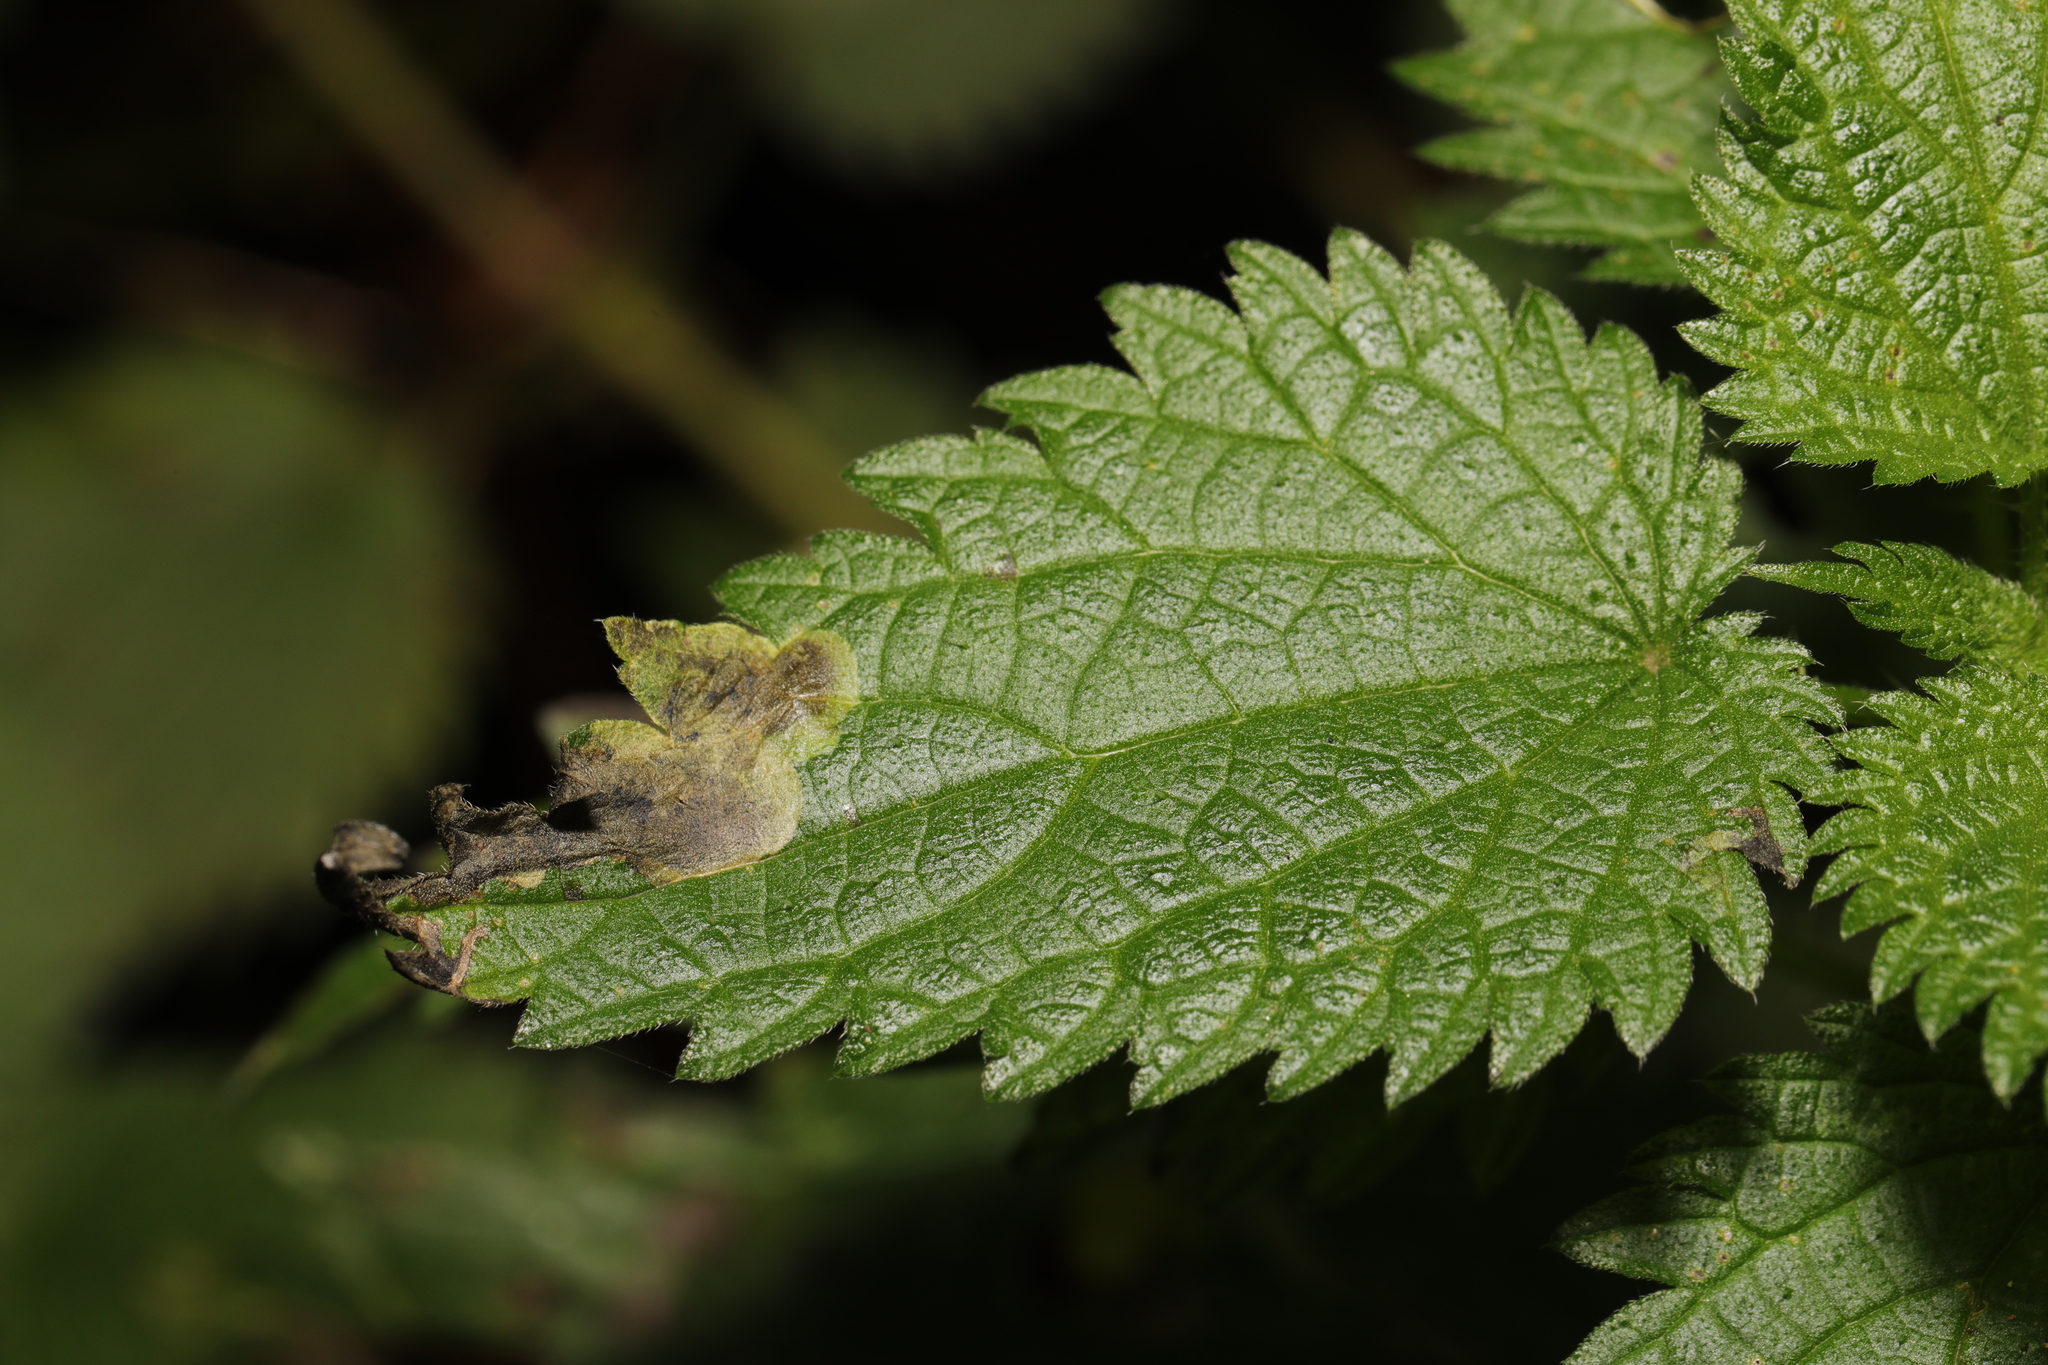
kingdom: Animalia
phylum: Arthropoda
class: Insecta
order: Diptera
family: Agromyzidae
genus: Agromyza
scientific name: Agromyza anthracina
